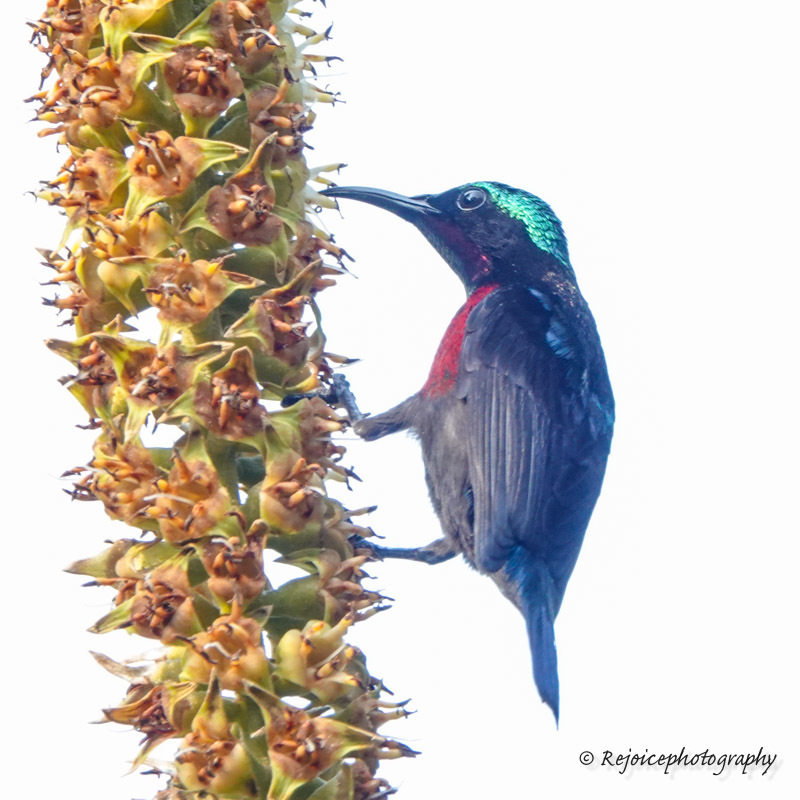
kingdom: Animalia
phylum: Chordata
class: Aves
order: Passeriformes
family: Nectariniidae
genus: Leptocoma
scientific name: Leptocoma brasiliana
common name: Van hasselt's sunbird
